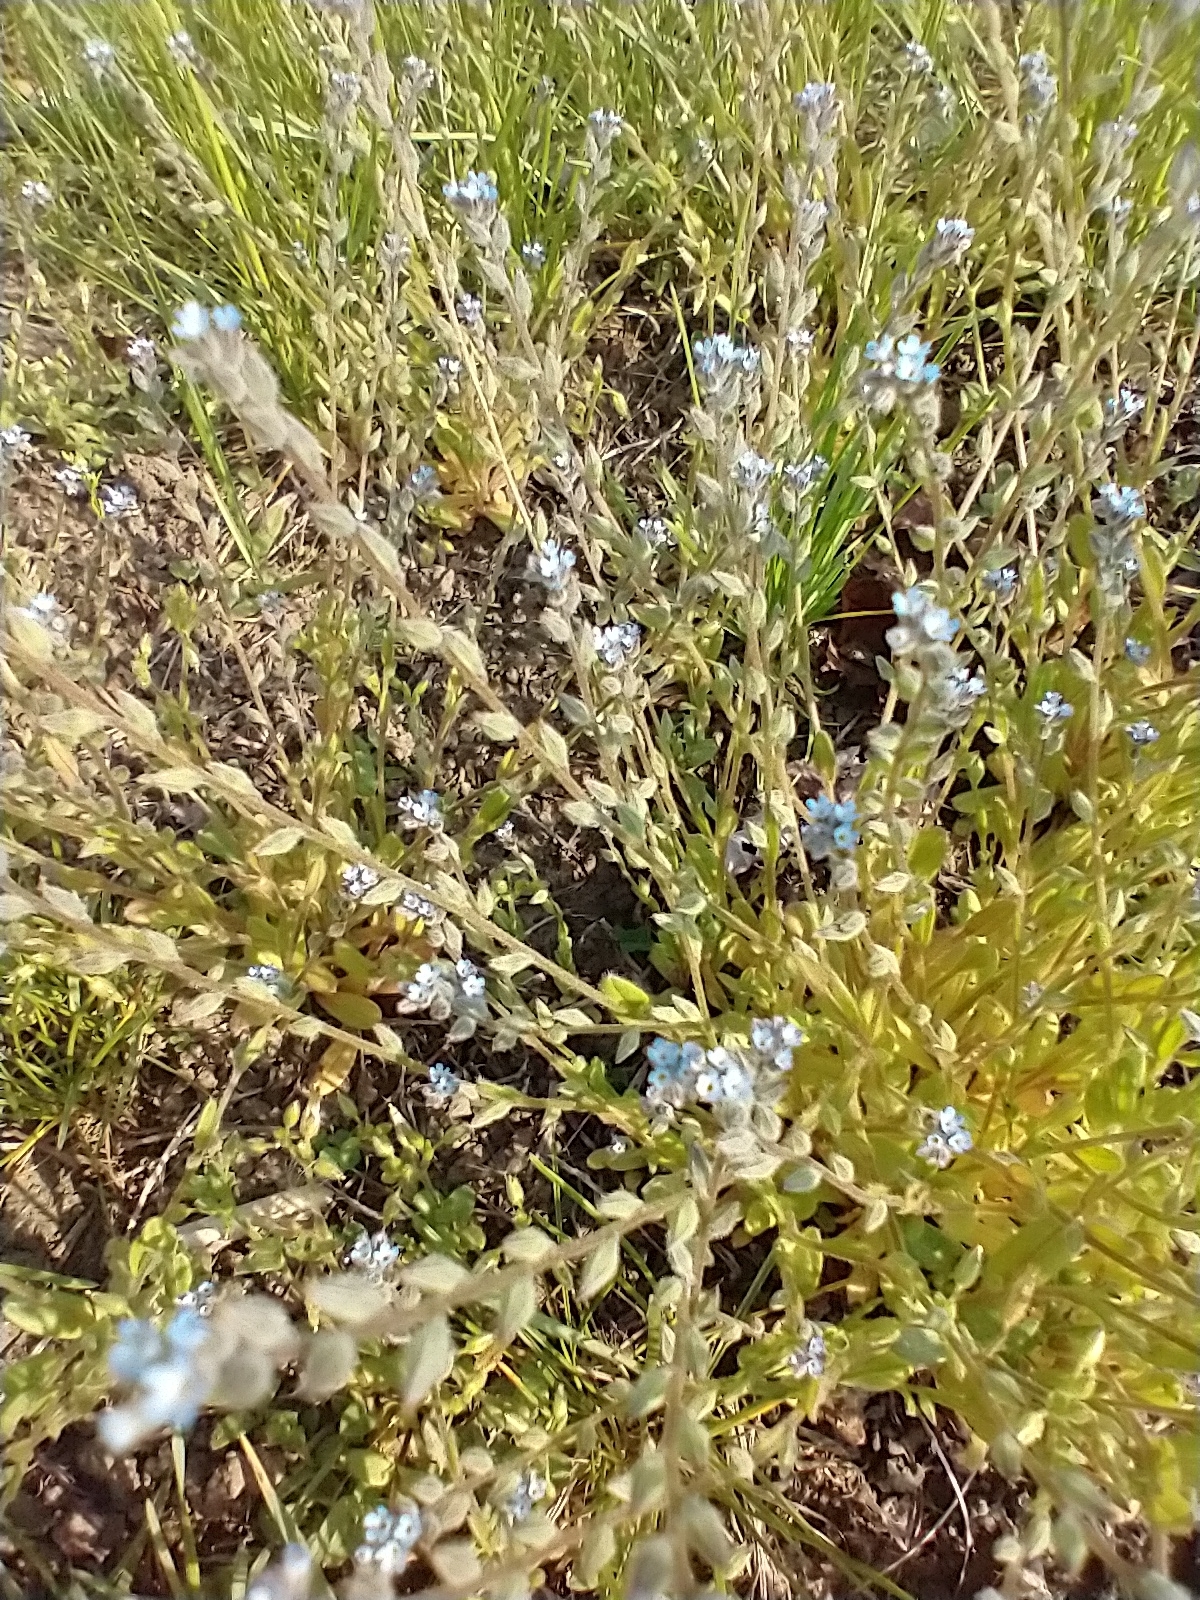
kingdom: Plantae
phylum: Tracheophyta
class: Magnoliopsida
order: Boraginales
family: Boraginaceae
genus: Myosotis
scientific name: Myosotis stricta
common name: Strict forget-me-not
